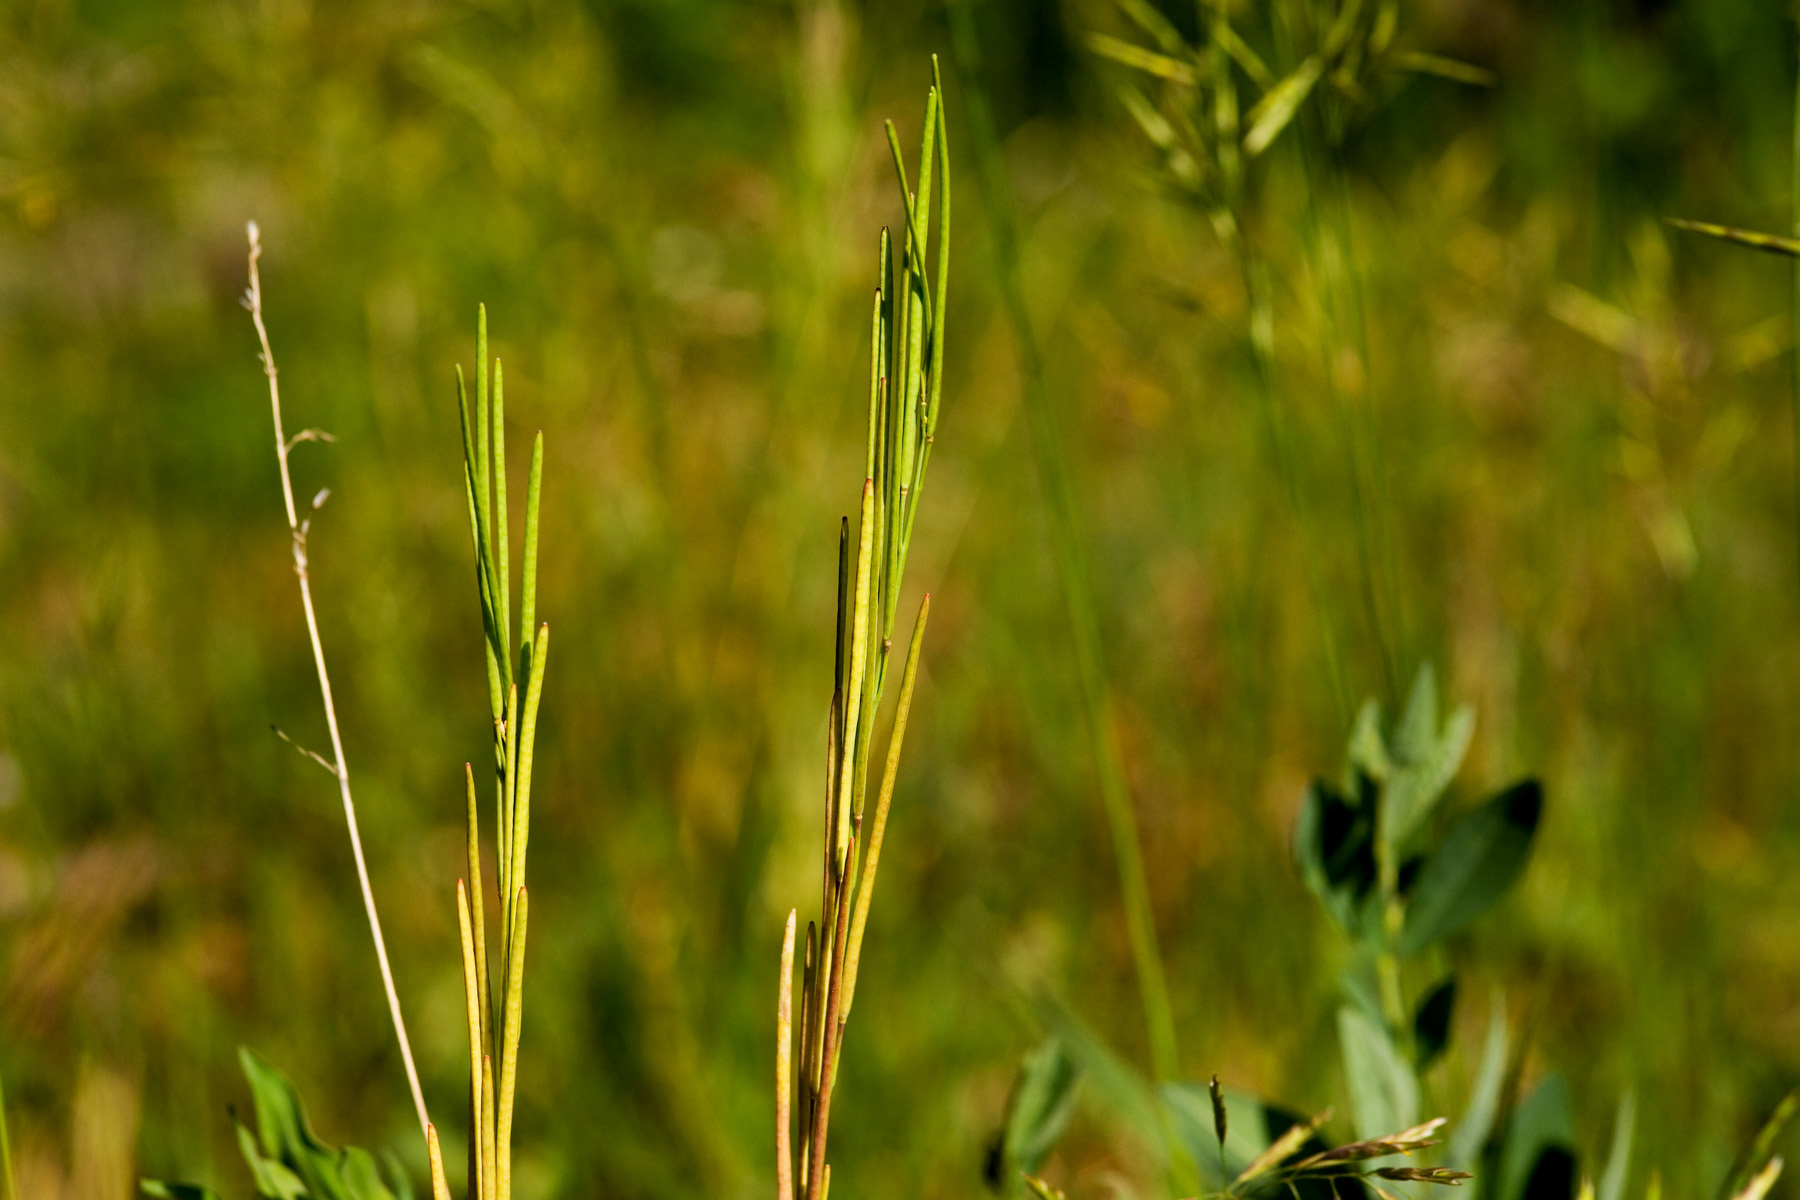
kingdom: Plantae
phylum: Tracheophyta
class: Magnoliopsida
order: Brassicales
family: Brassicaceae
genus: Boechera
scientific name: Boechera stricta
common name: Canadian rockcress
